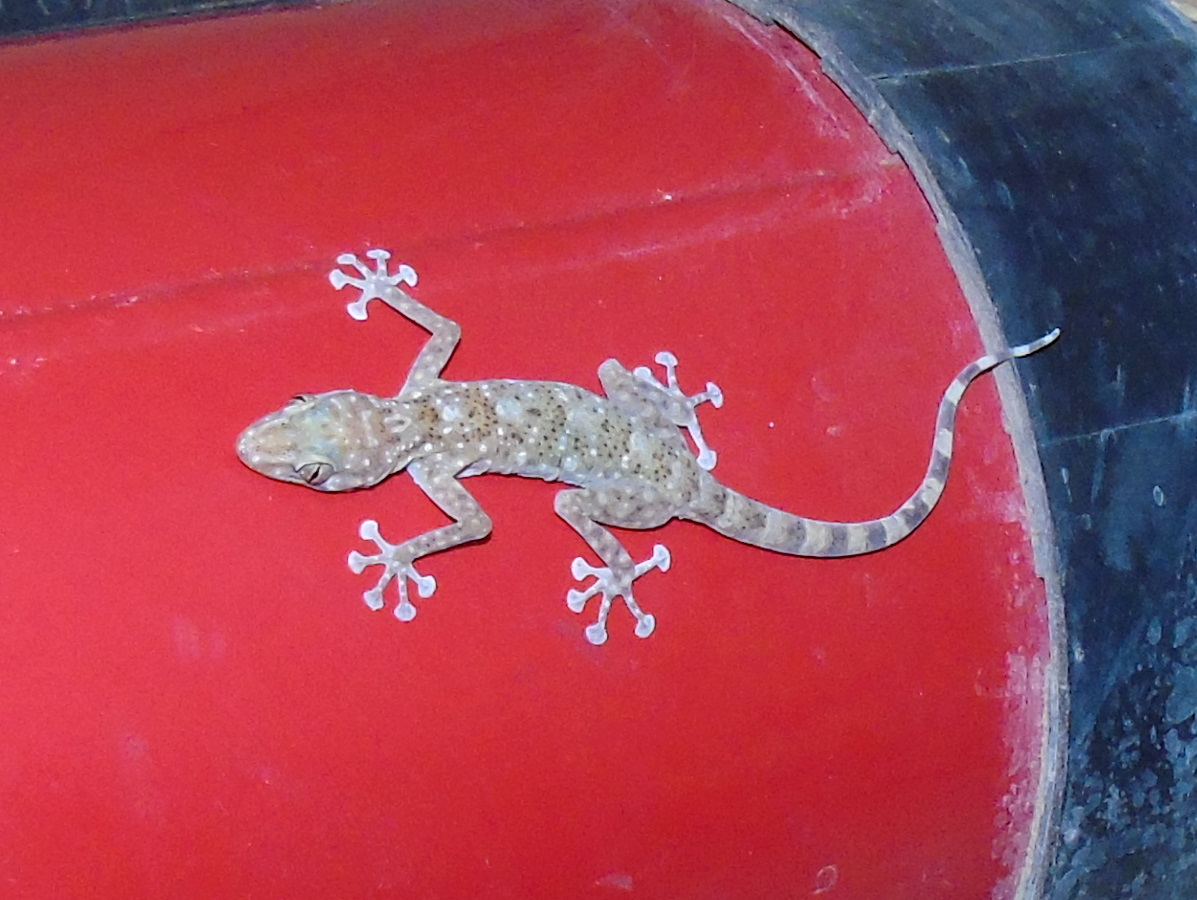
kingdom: Animalia
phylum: Chordata
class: Squamata
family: Phyllodactylidae
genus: Ptyodactylus
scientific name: Ptyodactylus hasselquistii
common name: Hasselquist’s fan-footed gecko
